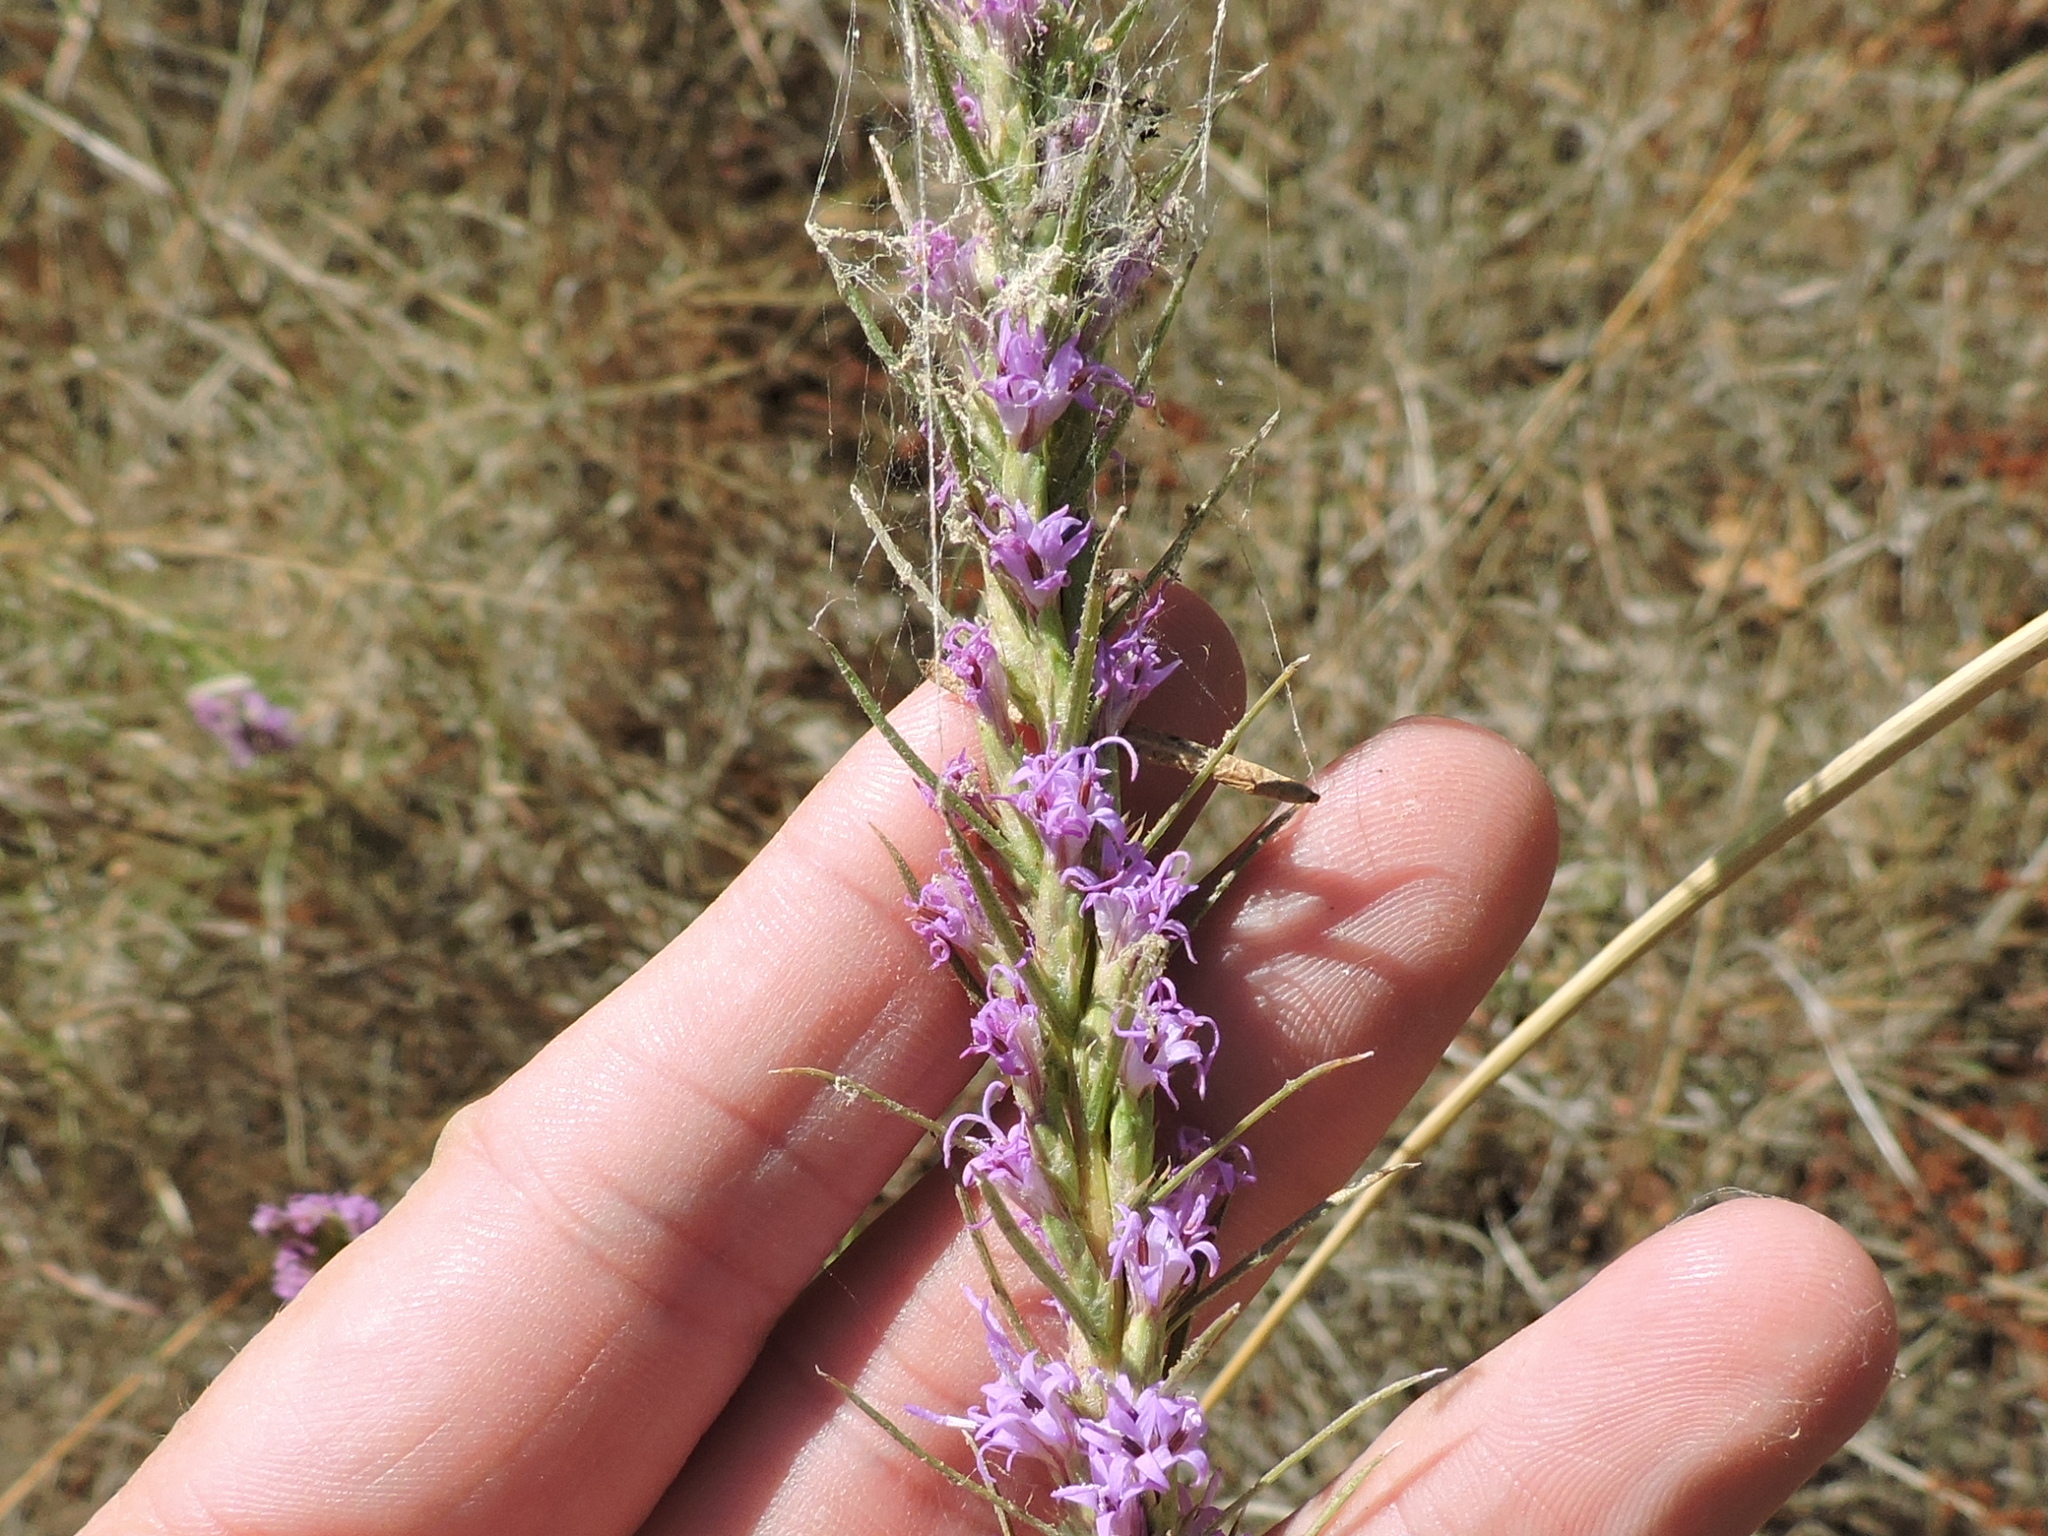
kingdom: Plantae
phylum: Tracheophyta
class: Magnoliopsida
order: Asterales
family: Asteraceae
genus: Liatris
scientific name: Liatris punctata
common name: Dotted gayfeather
